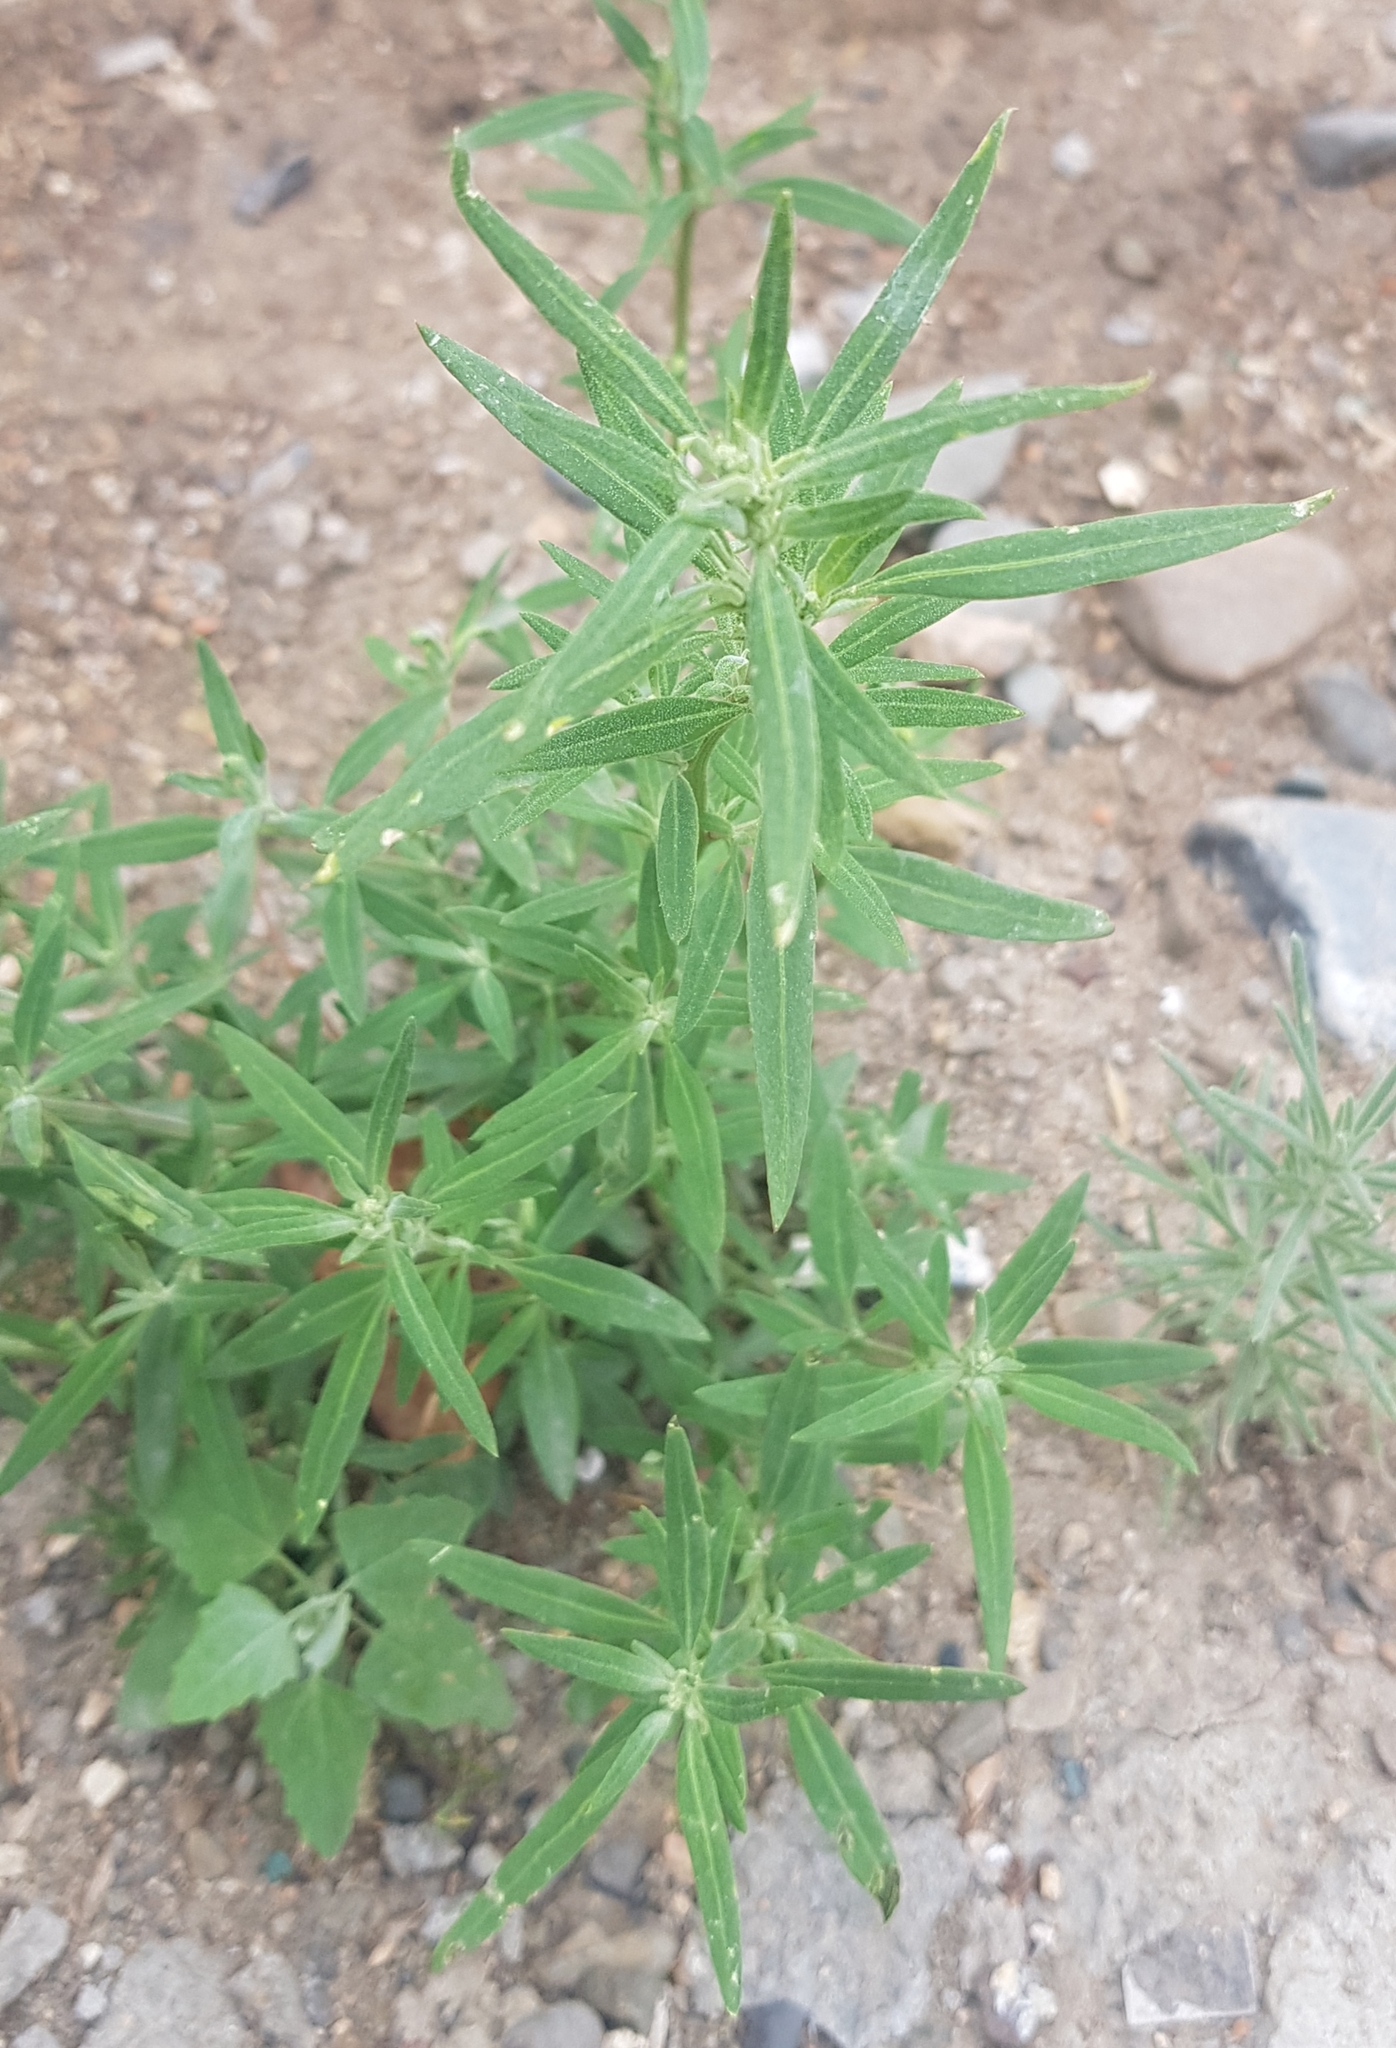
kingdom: Plantae
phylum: Tracheophyta
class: Magnoliopsida
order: Caryophyllales
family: Amaranthaceae
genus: Bassia
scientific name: Bassia scoparia
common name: Belvedere
